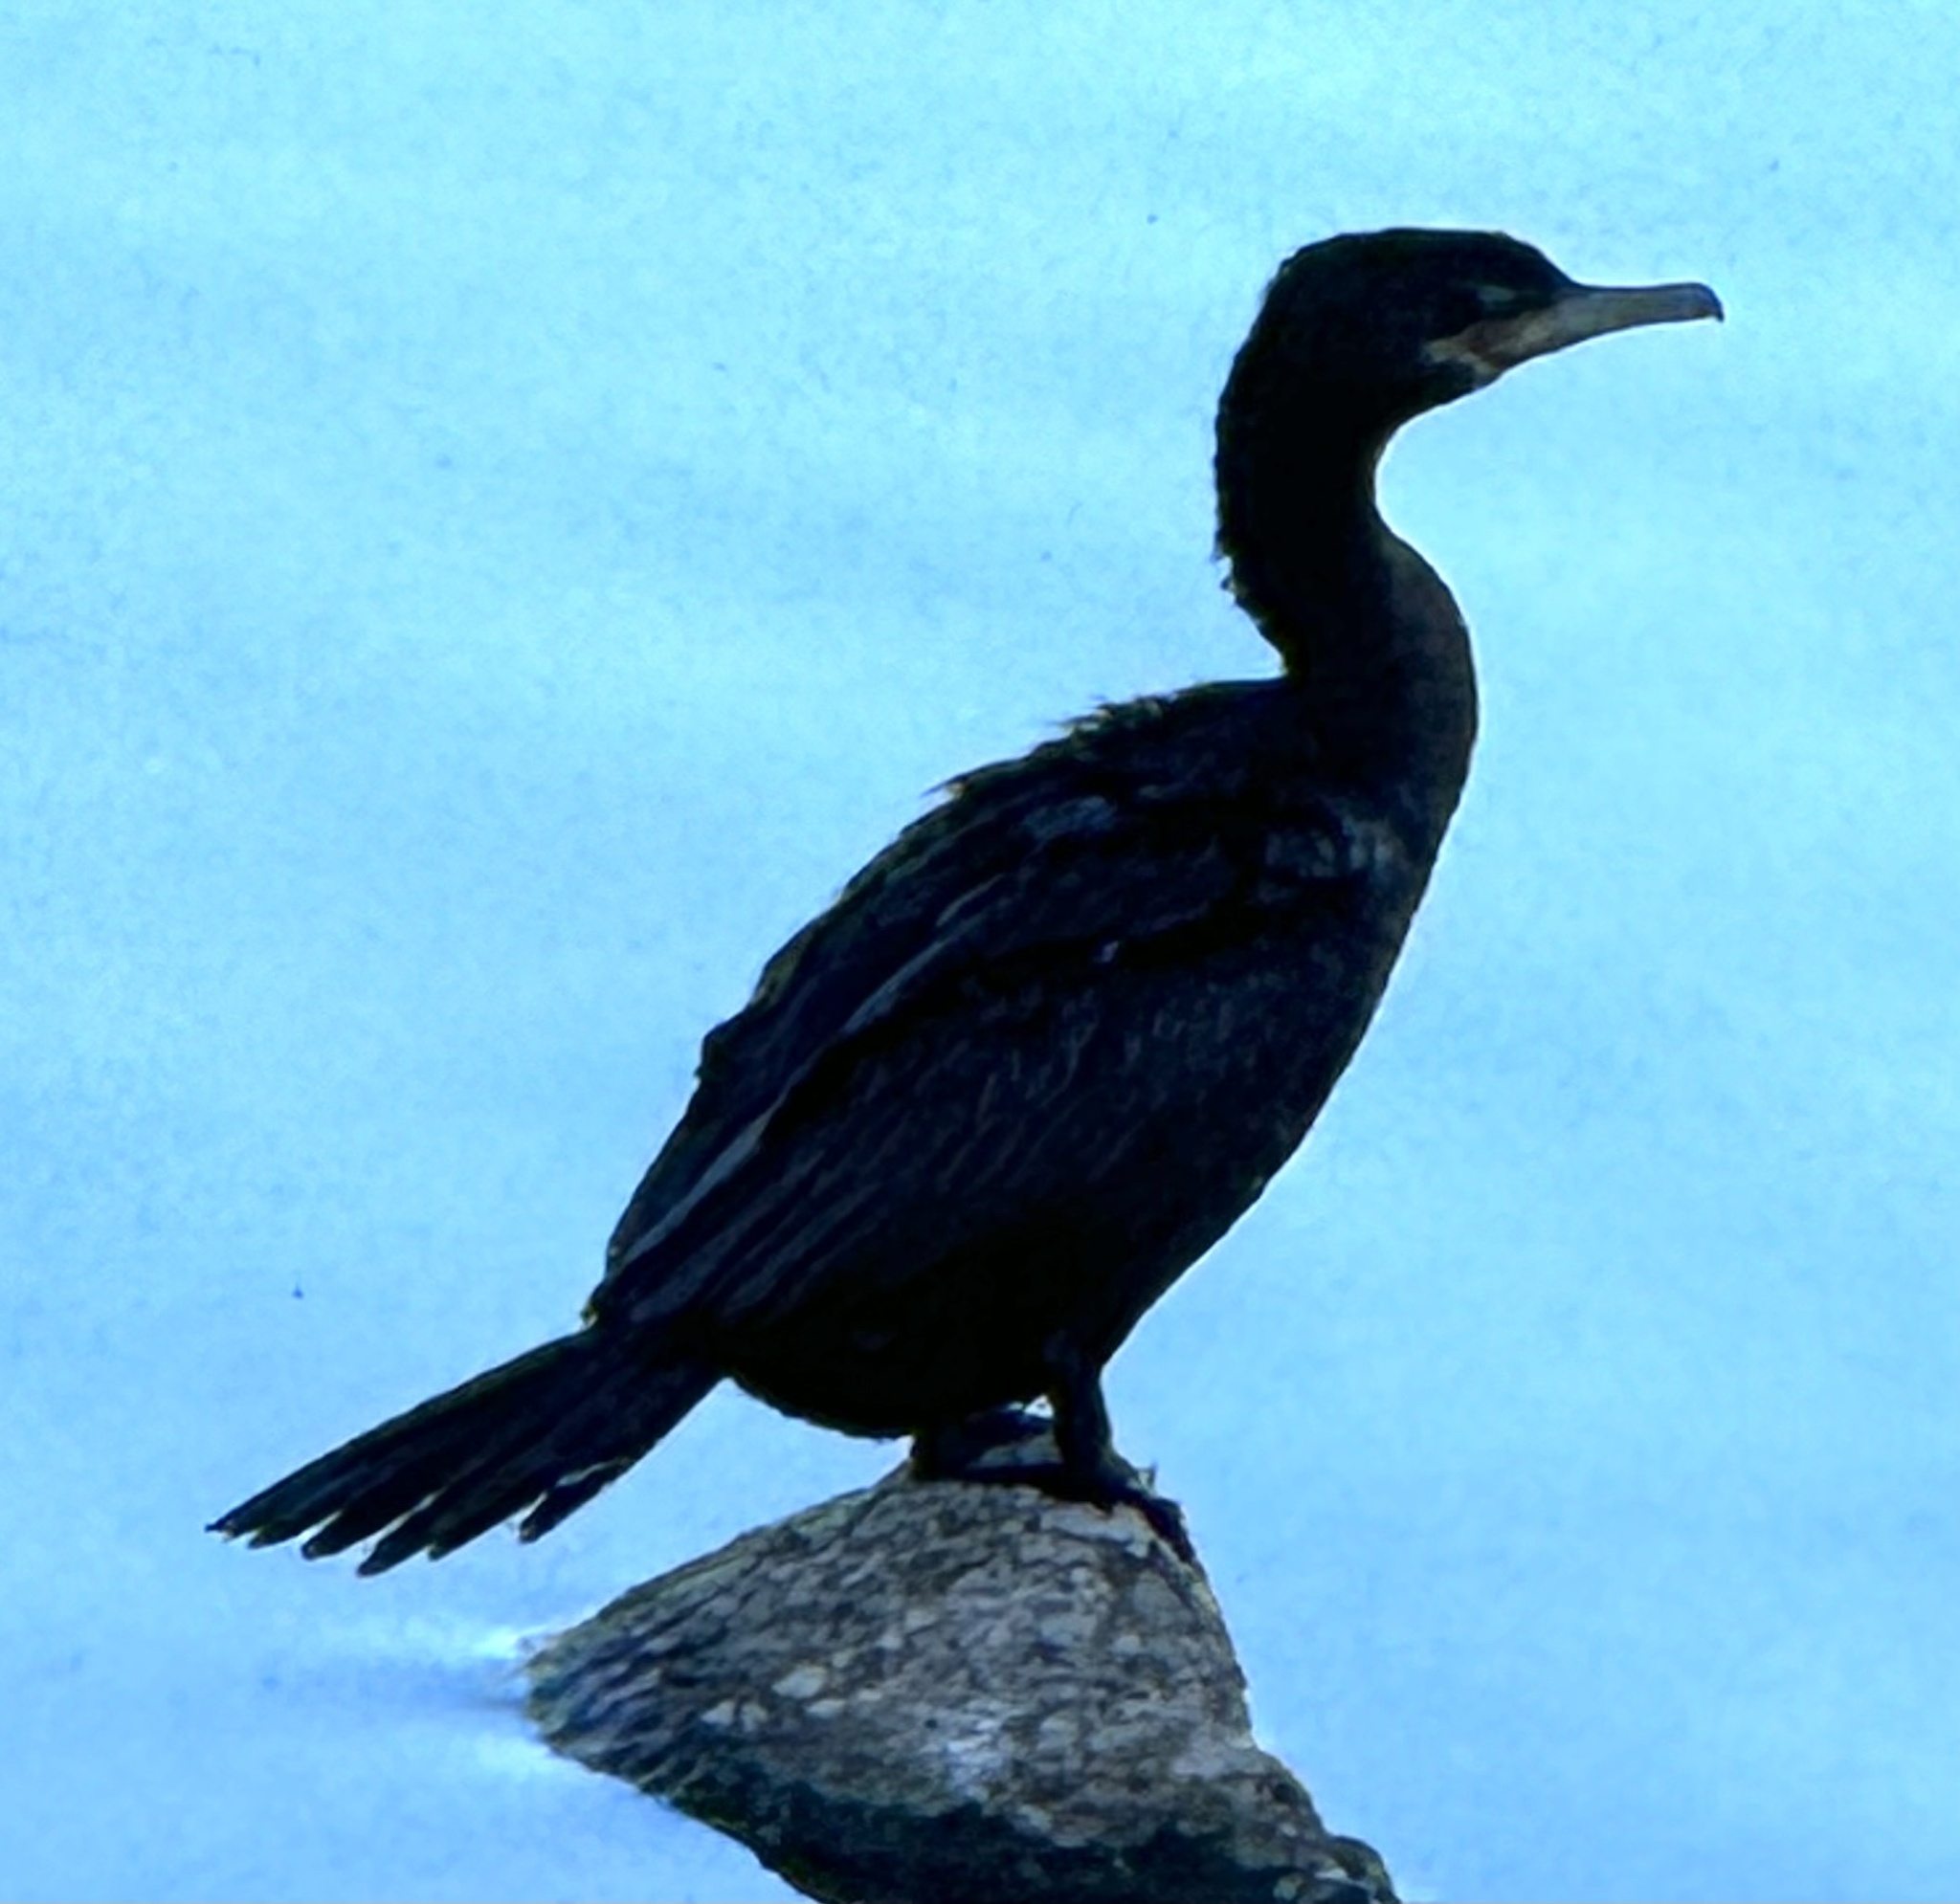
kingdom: Animalia
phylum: Chordata
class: Aves
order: Suliformes
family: Phalacrocoracidae
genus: Phalacrocorax
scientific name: Phalacrocorax brasilianus
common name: Neotropic cormorant
